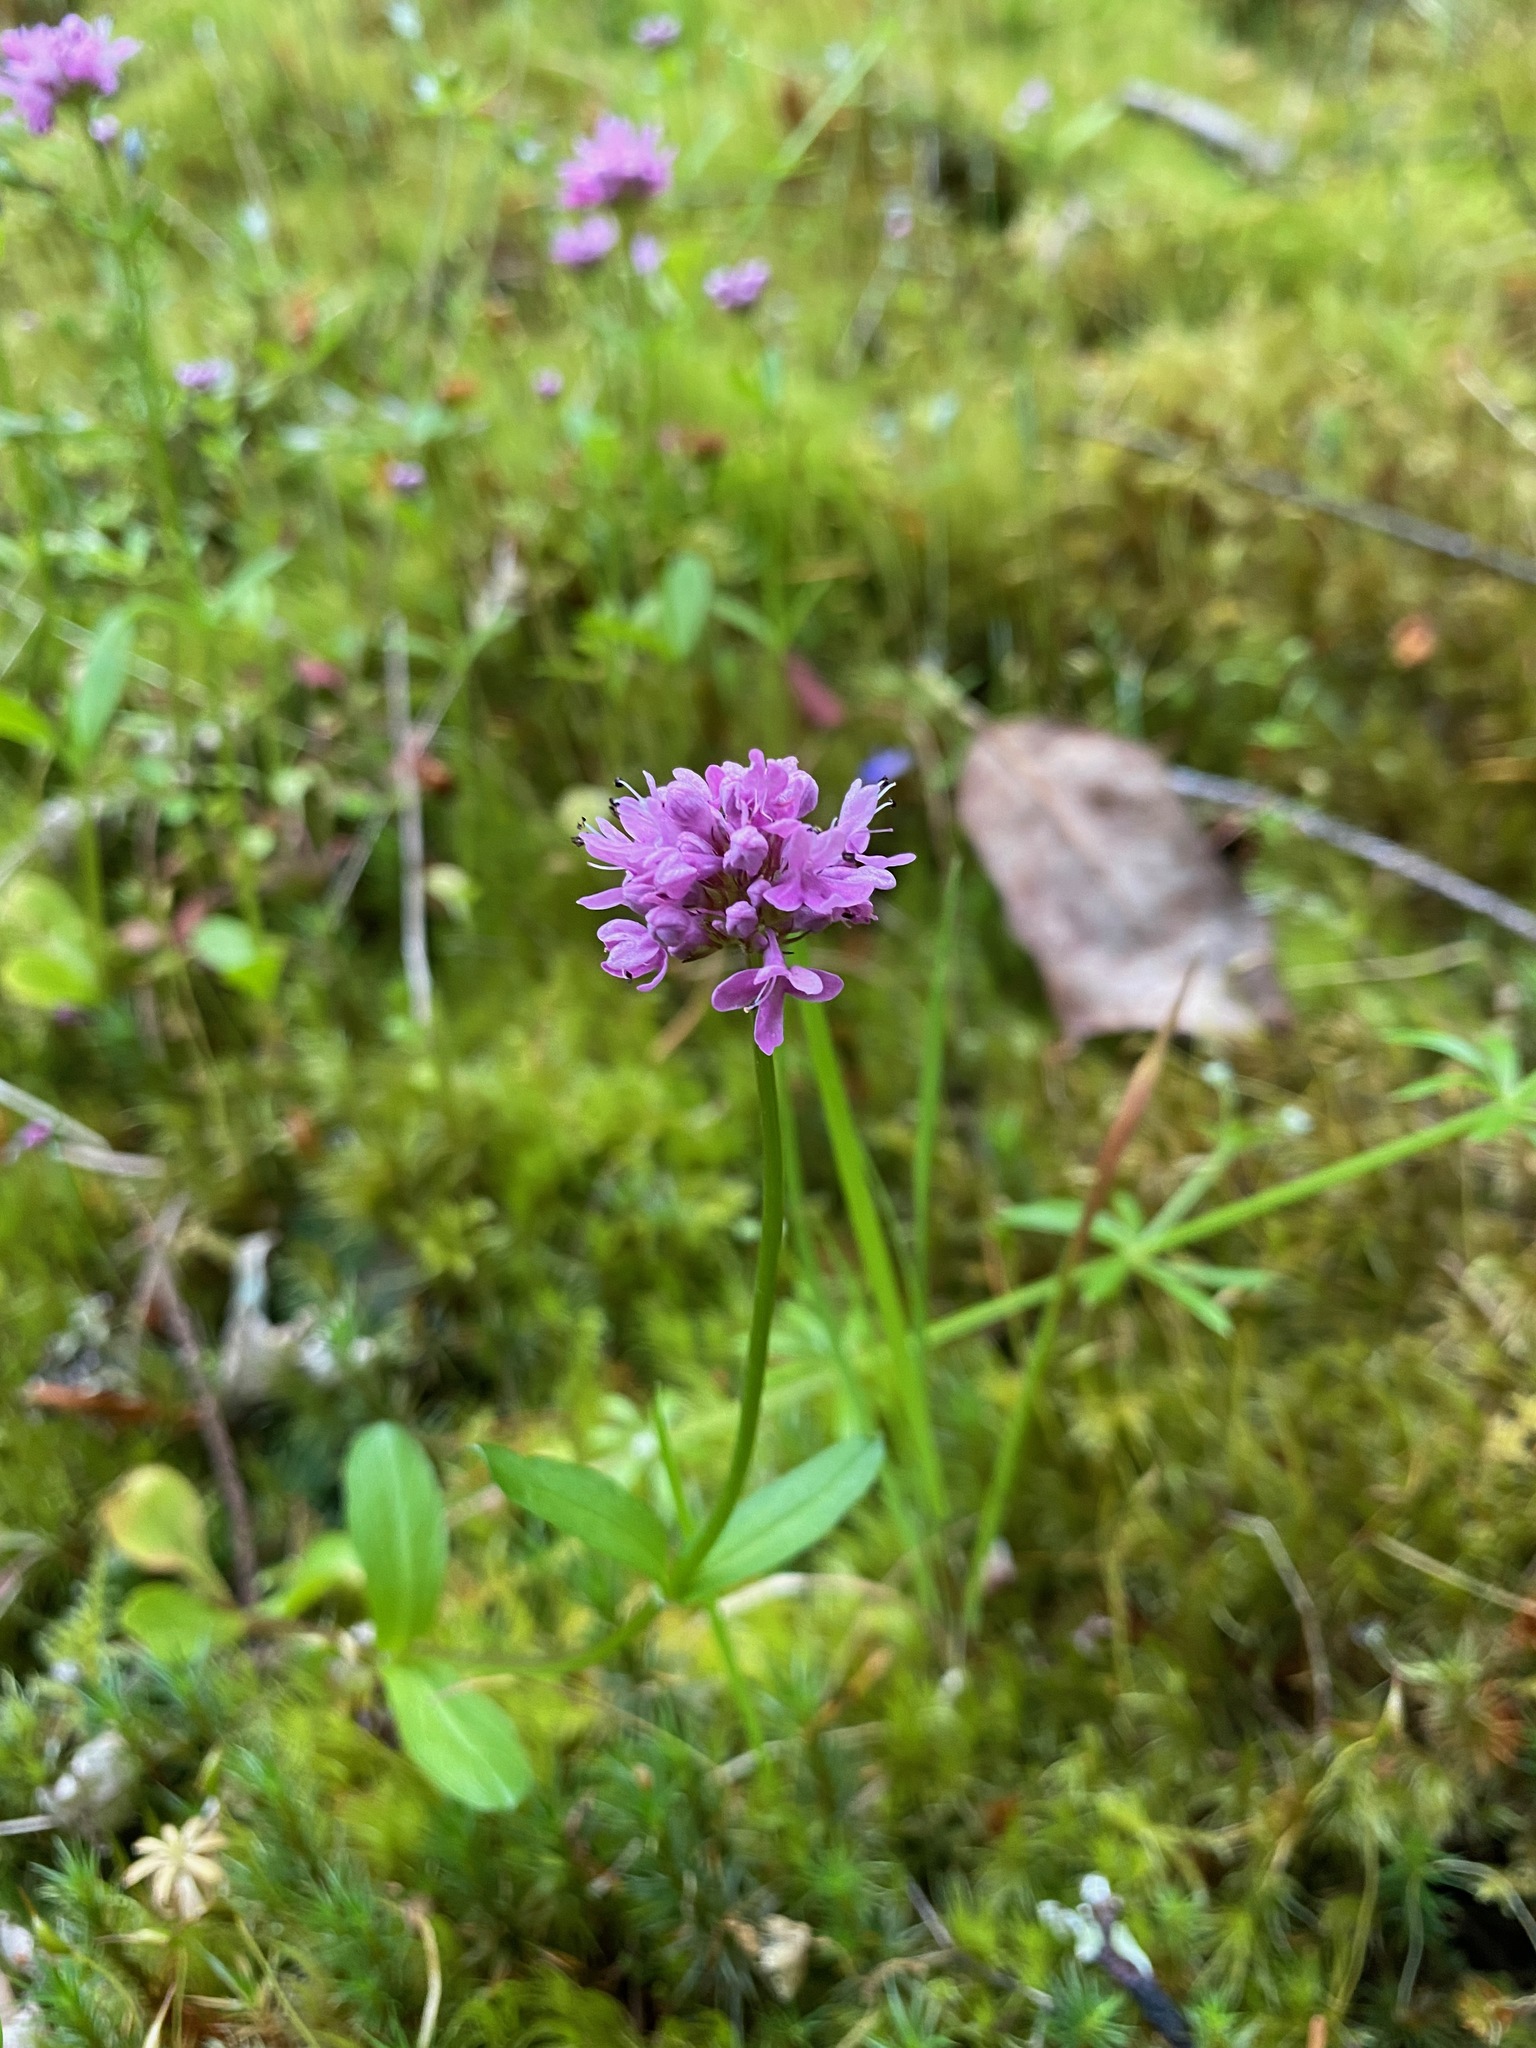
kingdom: Plantae
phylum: Tracheophyta
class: Magnoliopsida
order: Dipsacales
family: Caprifoliaceae
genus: Plectritis
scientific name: Plectritis congesta
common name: Pink plectritis
